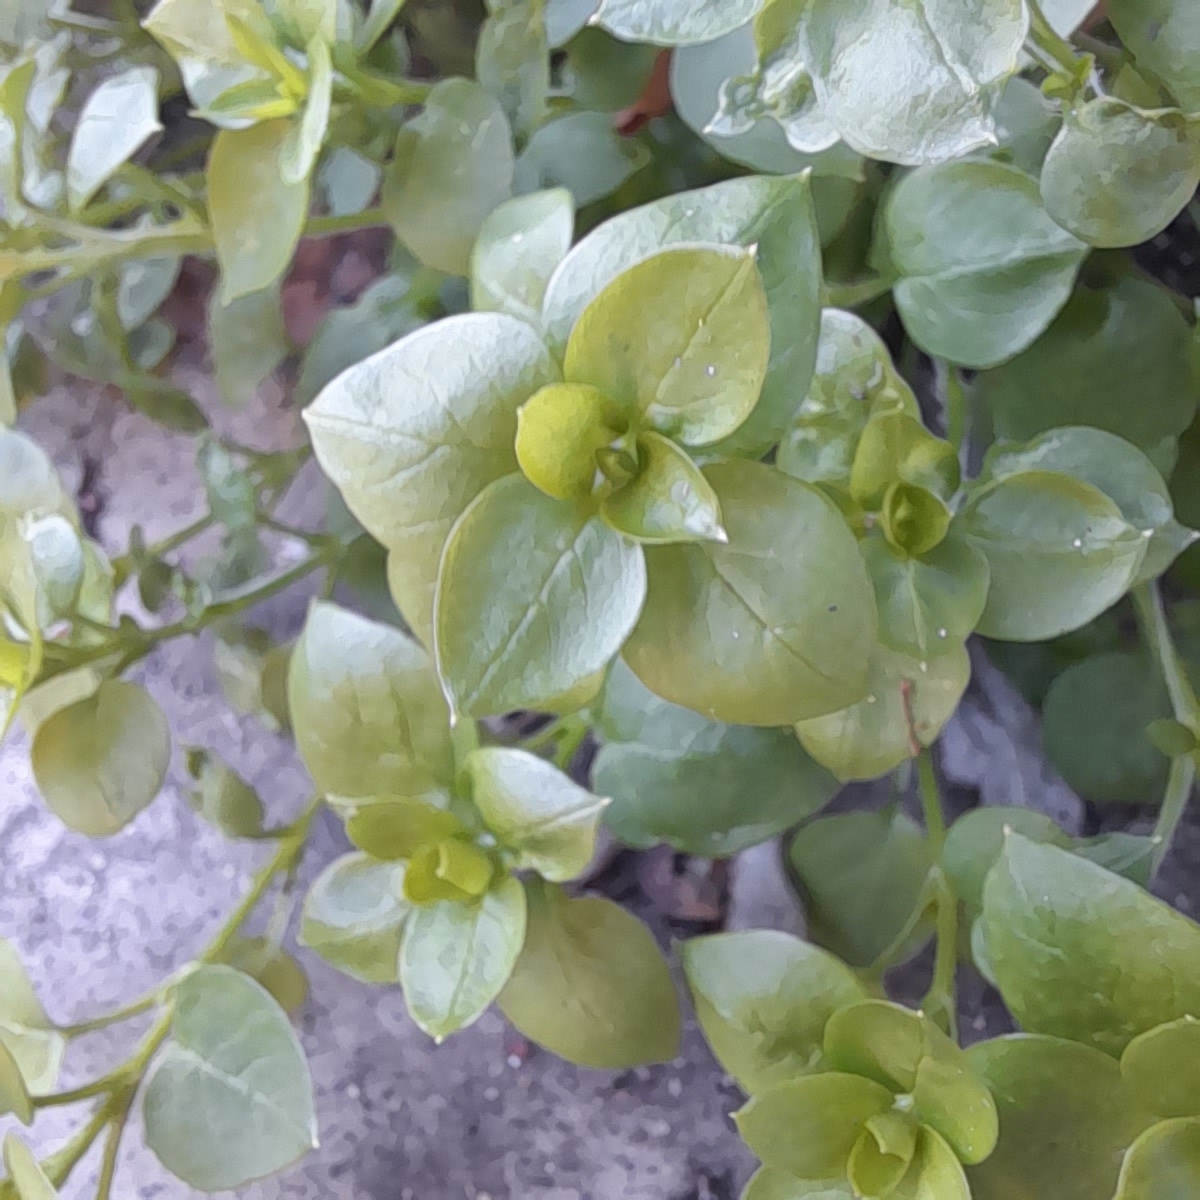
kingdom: Plantae
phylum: Tracheophyta
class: Magnoliopsida
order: Caryophyllales
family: Caryophyllaceae
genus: Stellaria
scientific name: Stellaria media
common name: Common chickweed
